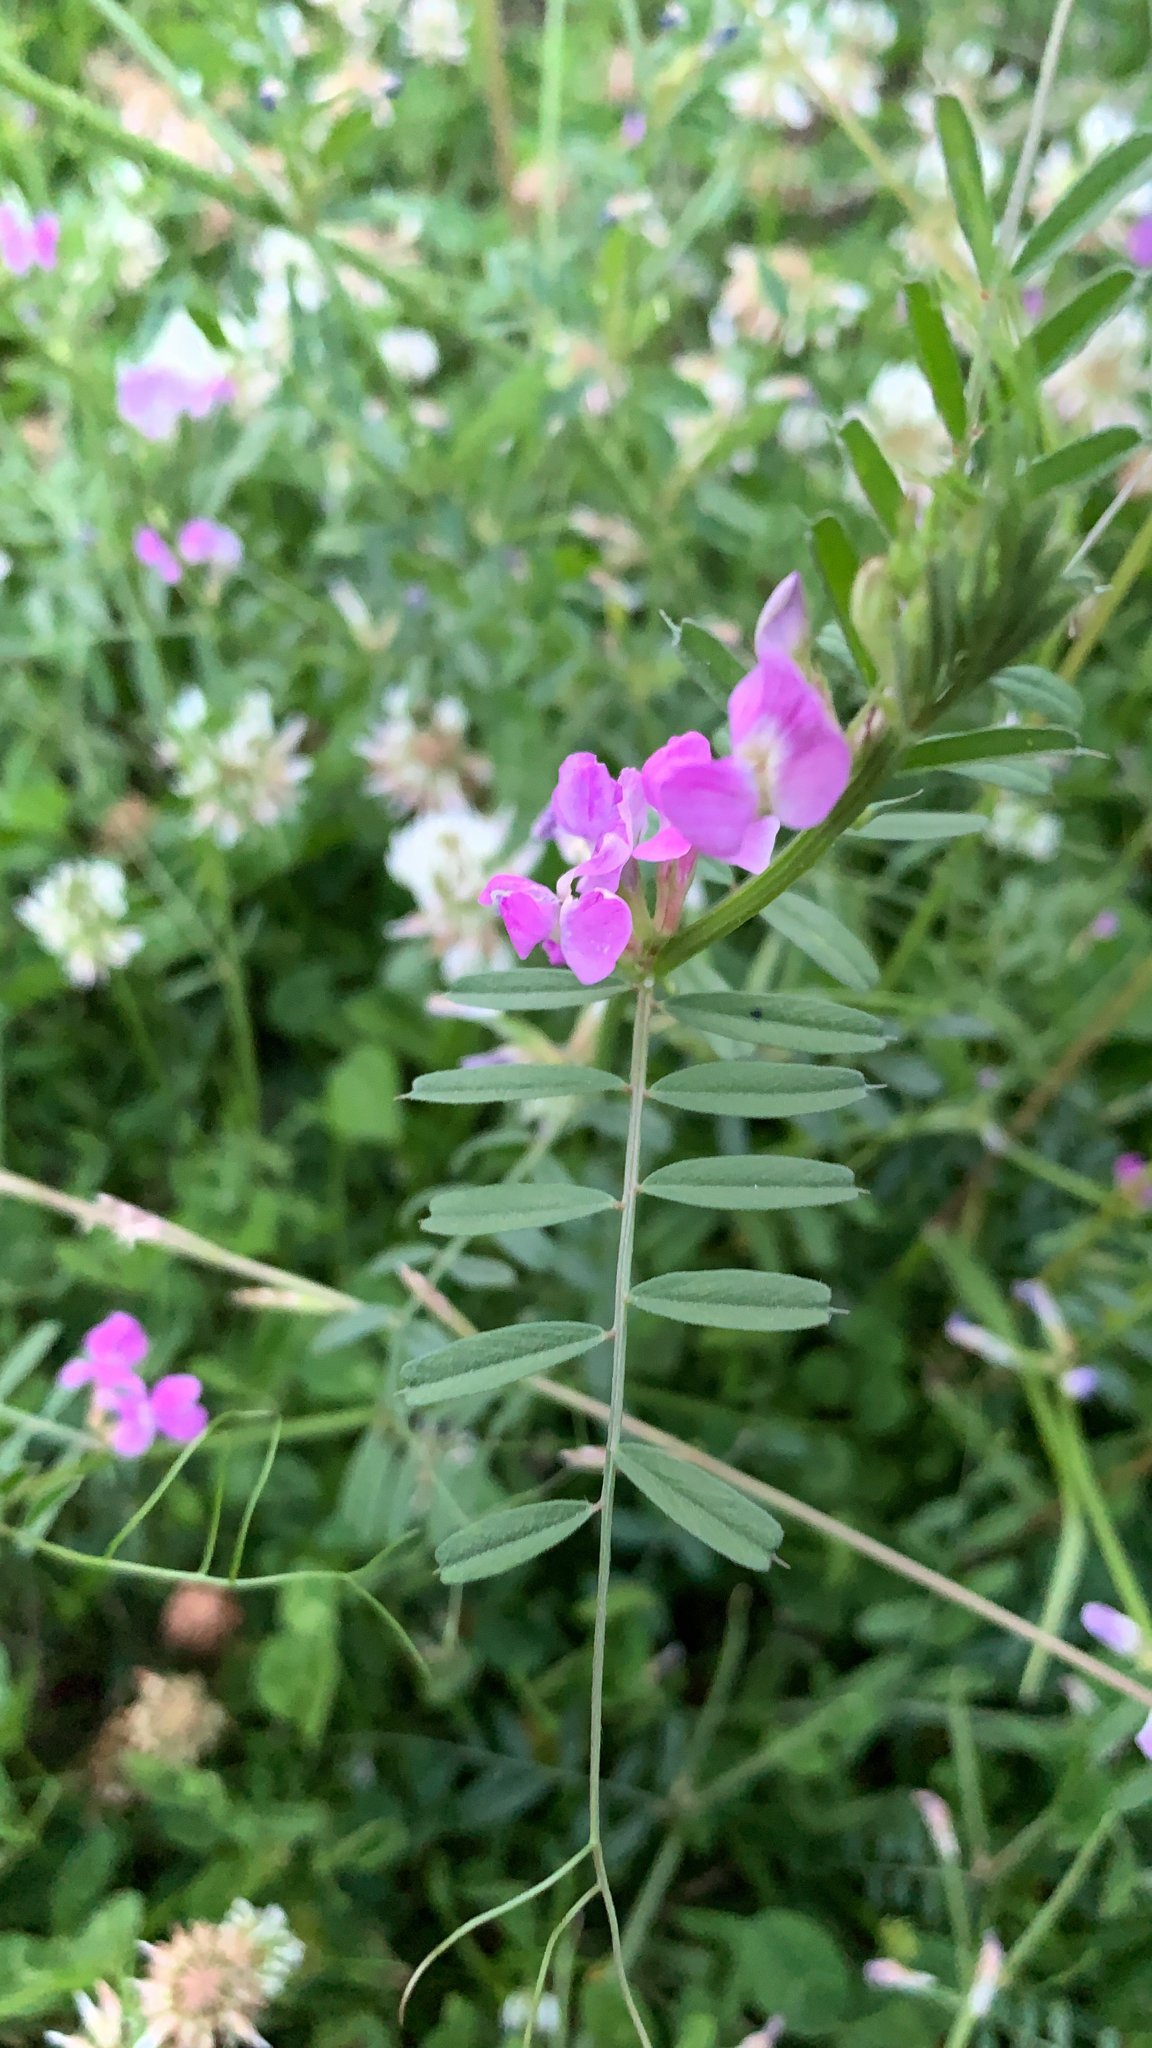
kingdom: Plantae
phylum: Tracheophyta
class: Magnoliopsida
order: Fabales
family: Fabaceae
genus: Vicia
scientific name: Vicia sativa
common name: Garden vetch
